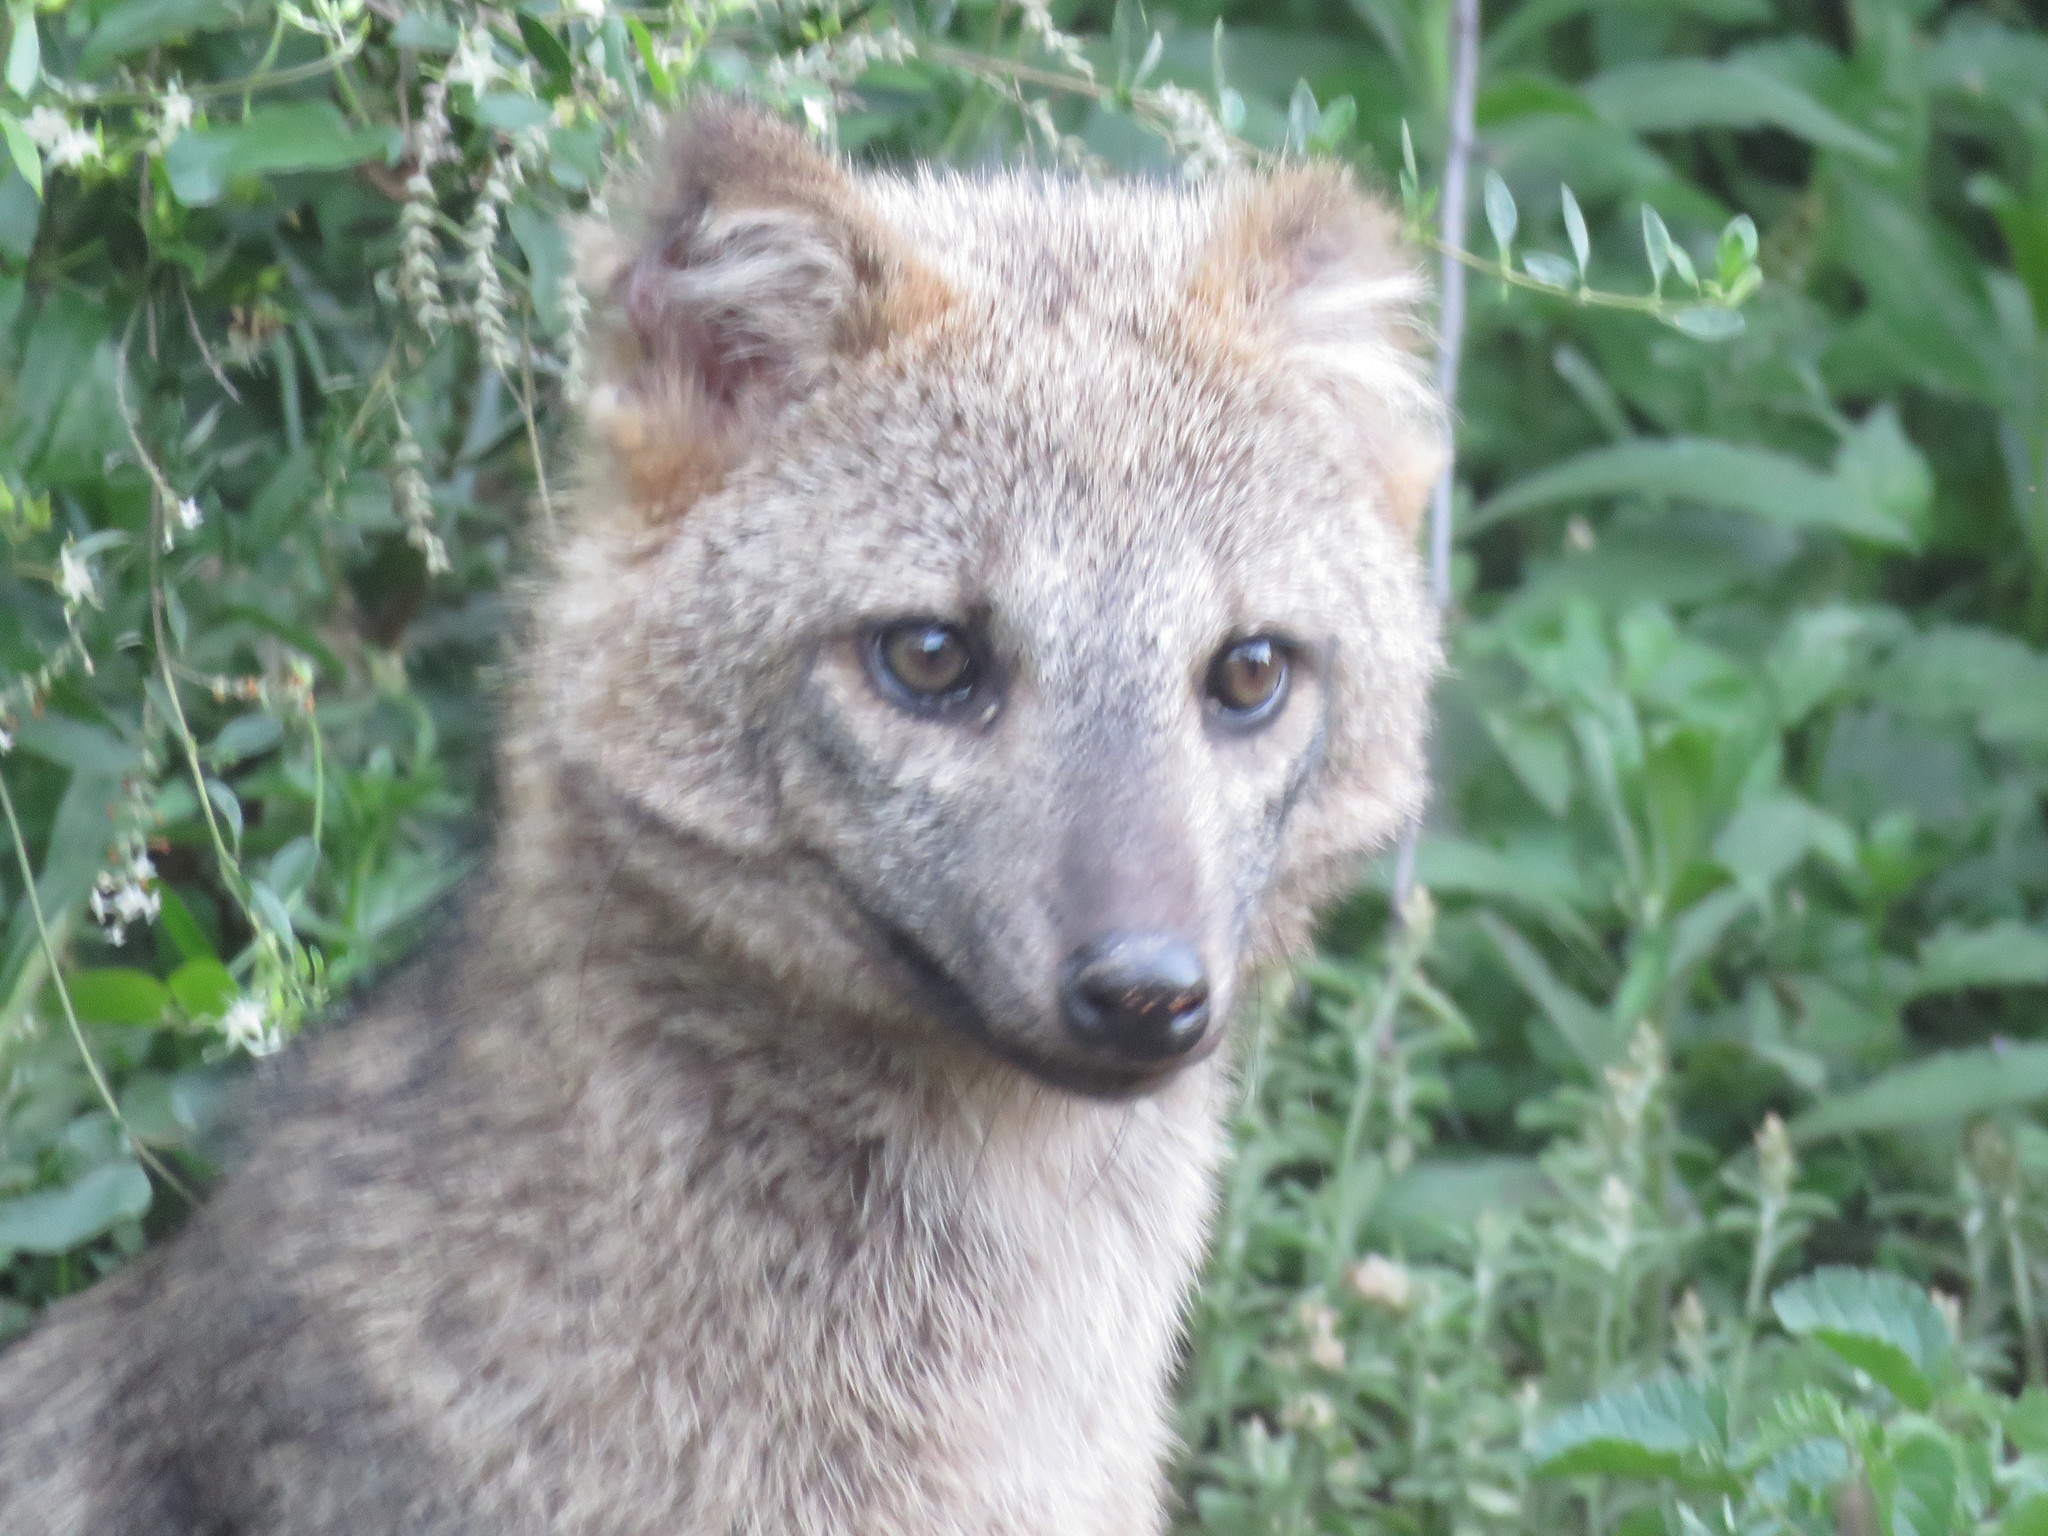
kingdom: Animalia
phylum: Chordata
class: Mammalia
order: Carnivora
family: Canidae
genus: Cerdocyon
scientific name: Cerdocyon thous
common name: Crab-eating fox
